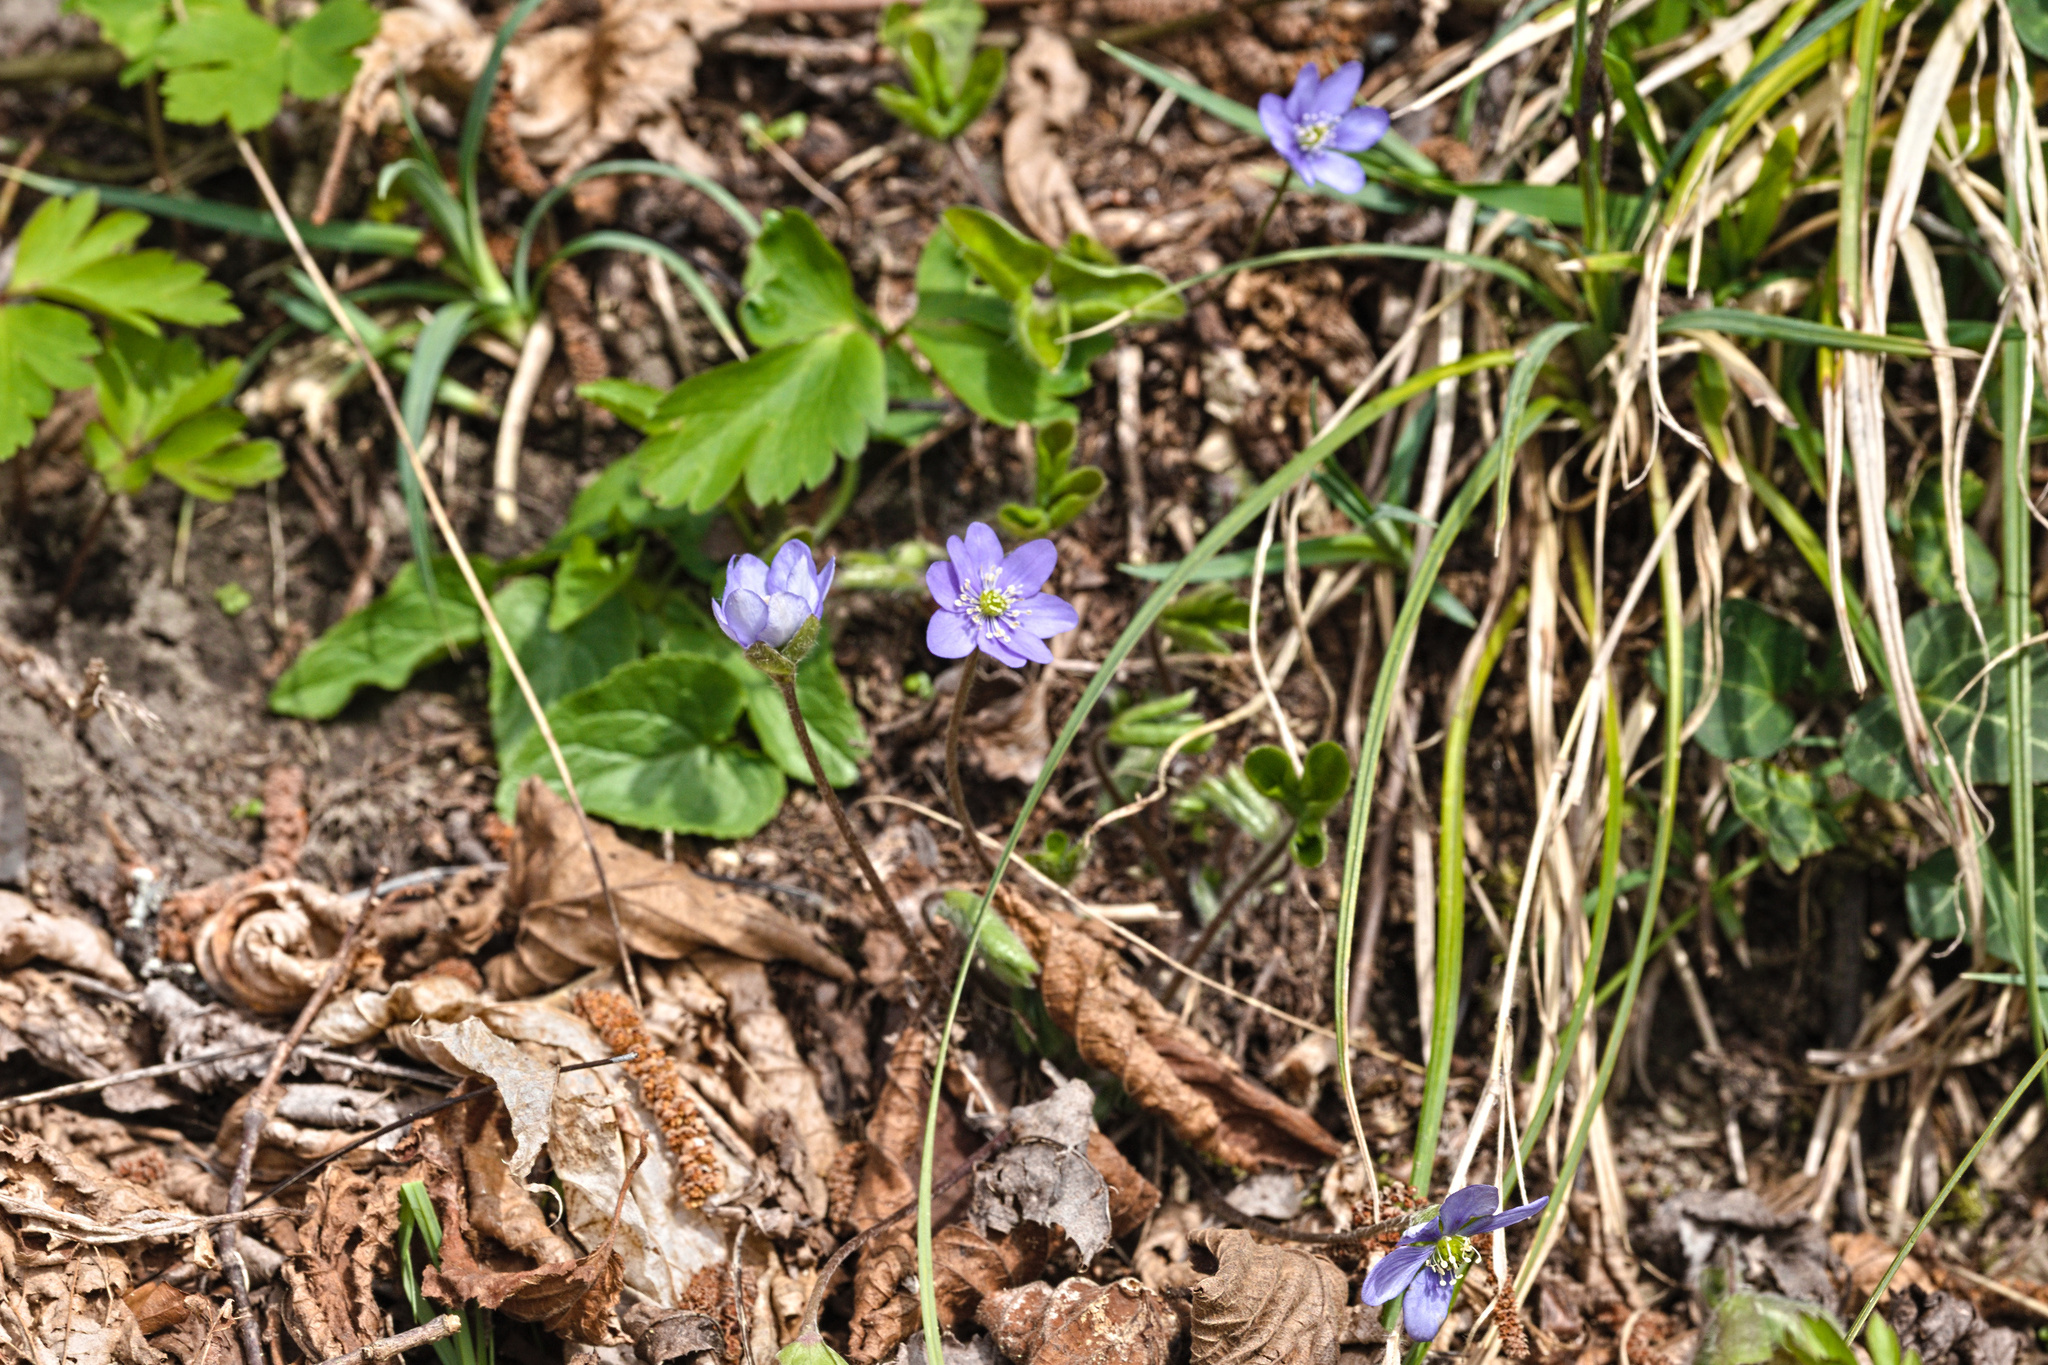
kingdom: Plantae
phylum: Tracheophyta
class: Magnoliopsida
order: Ranunculales
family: Ranunculaceae
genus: Hepatica
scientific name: Hepatica nobilis
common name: Liverleaf
